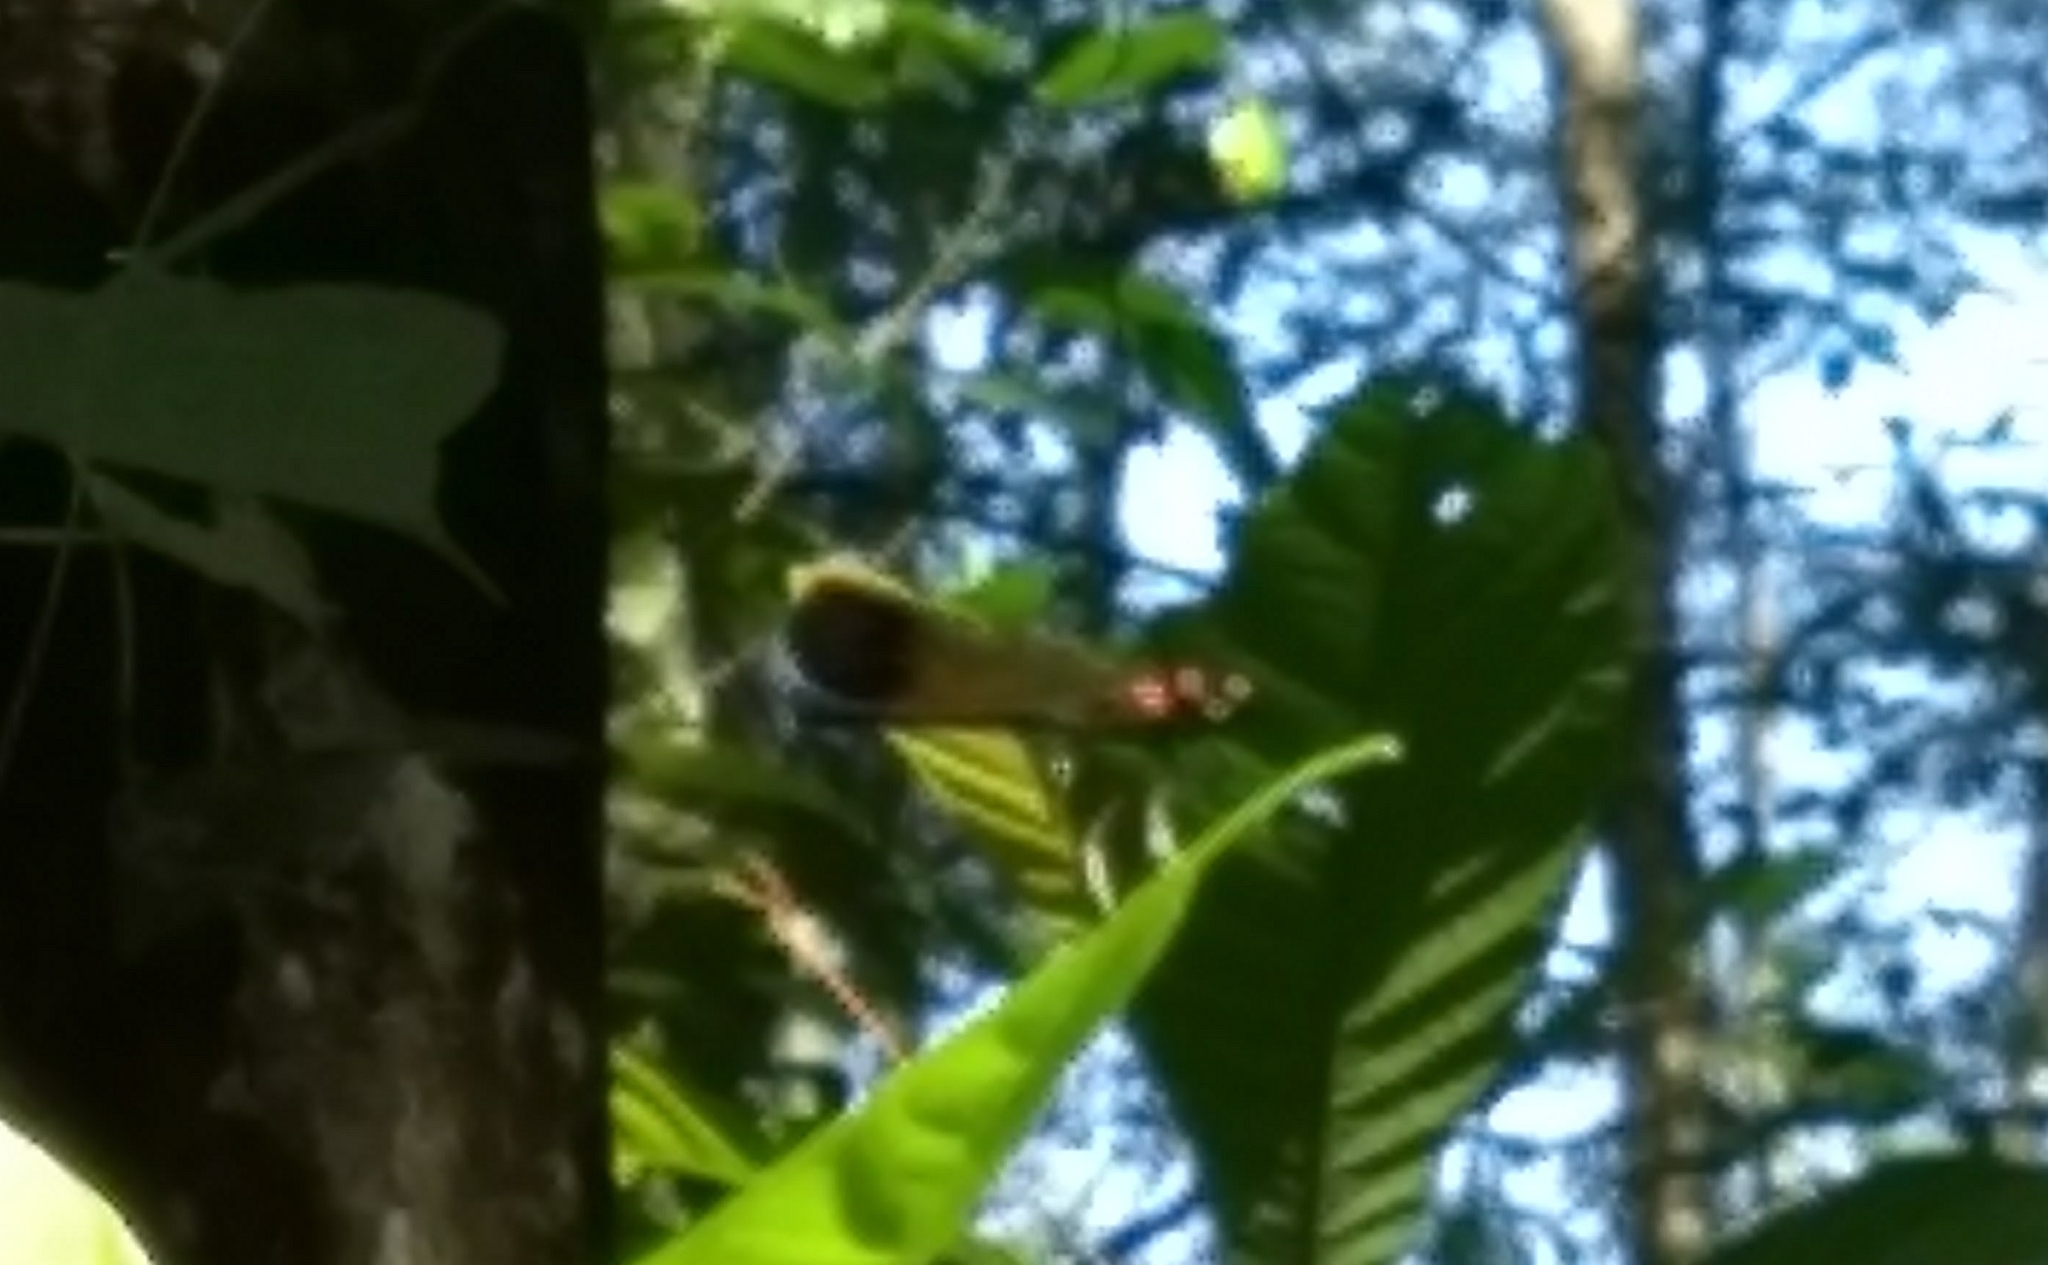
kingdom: Animalia
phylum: Arthropoda
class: Insecta
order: Odonata
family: Chlorocyphidae
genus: Heliocypha
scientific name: Heliocypha bisignata
